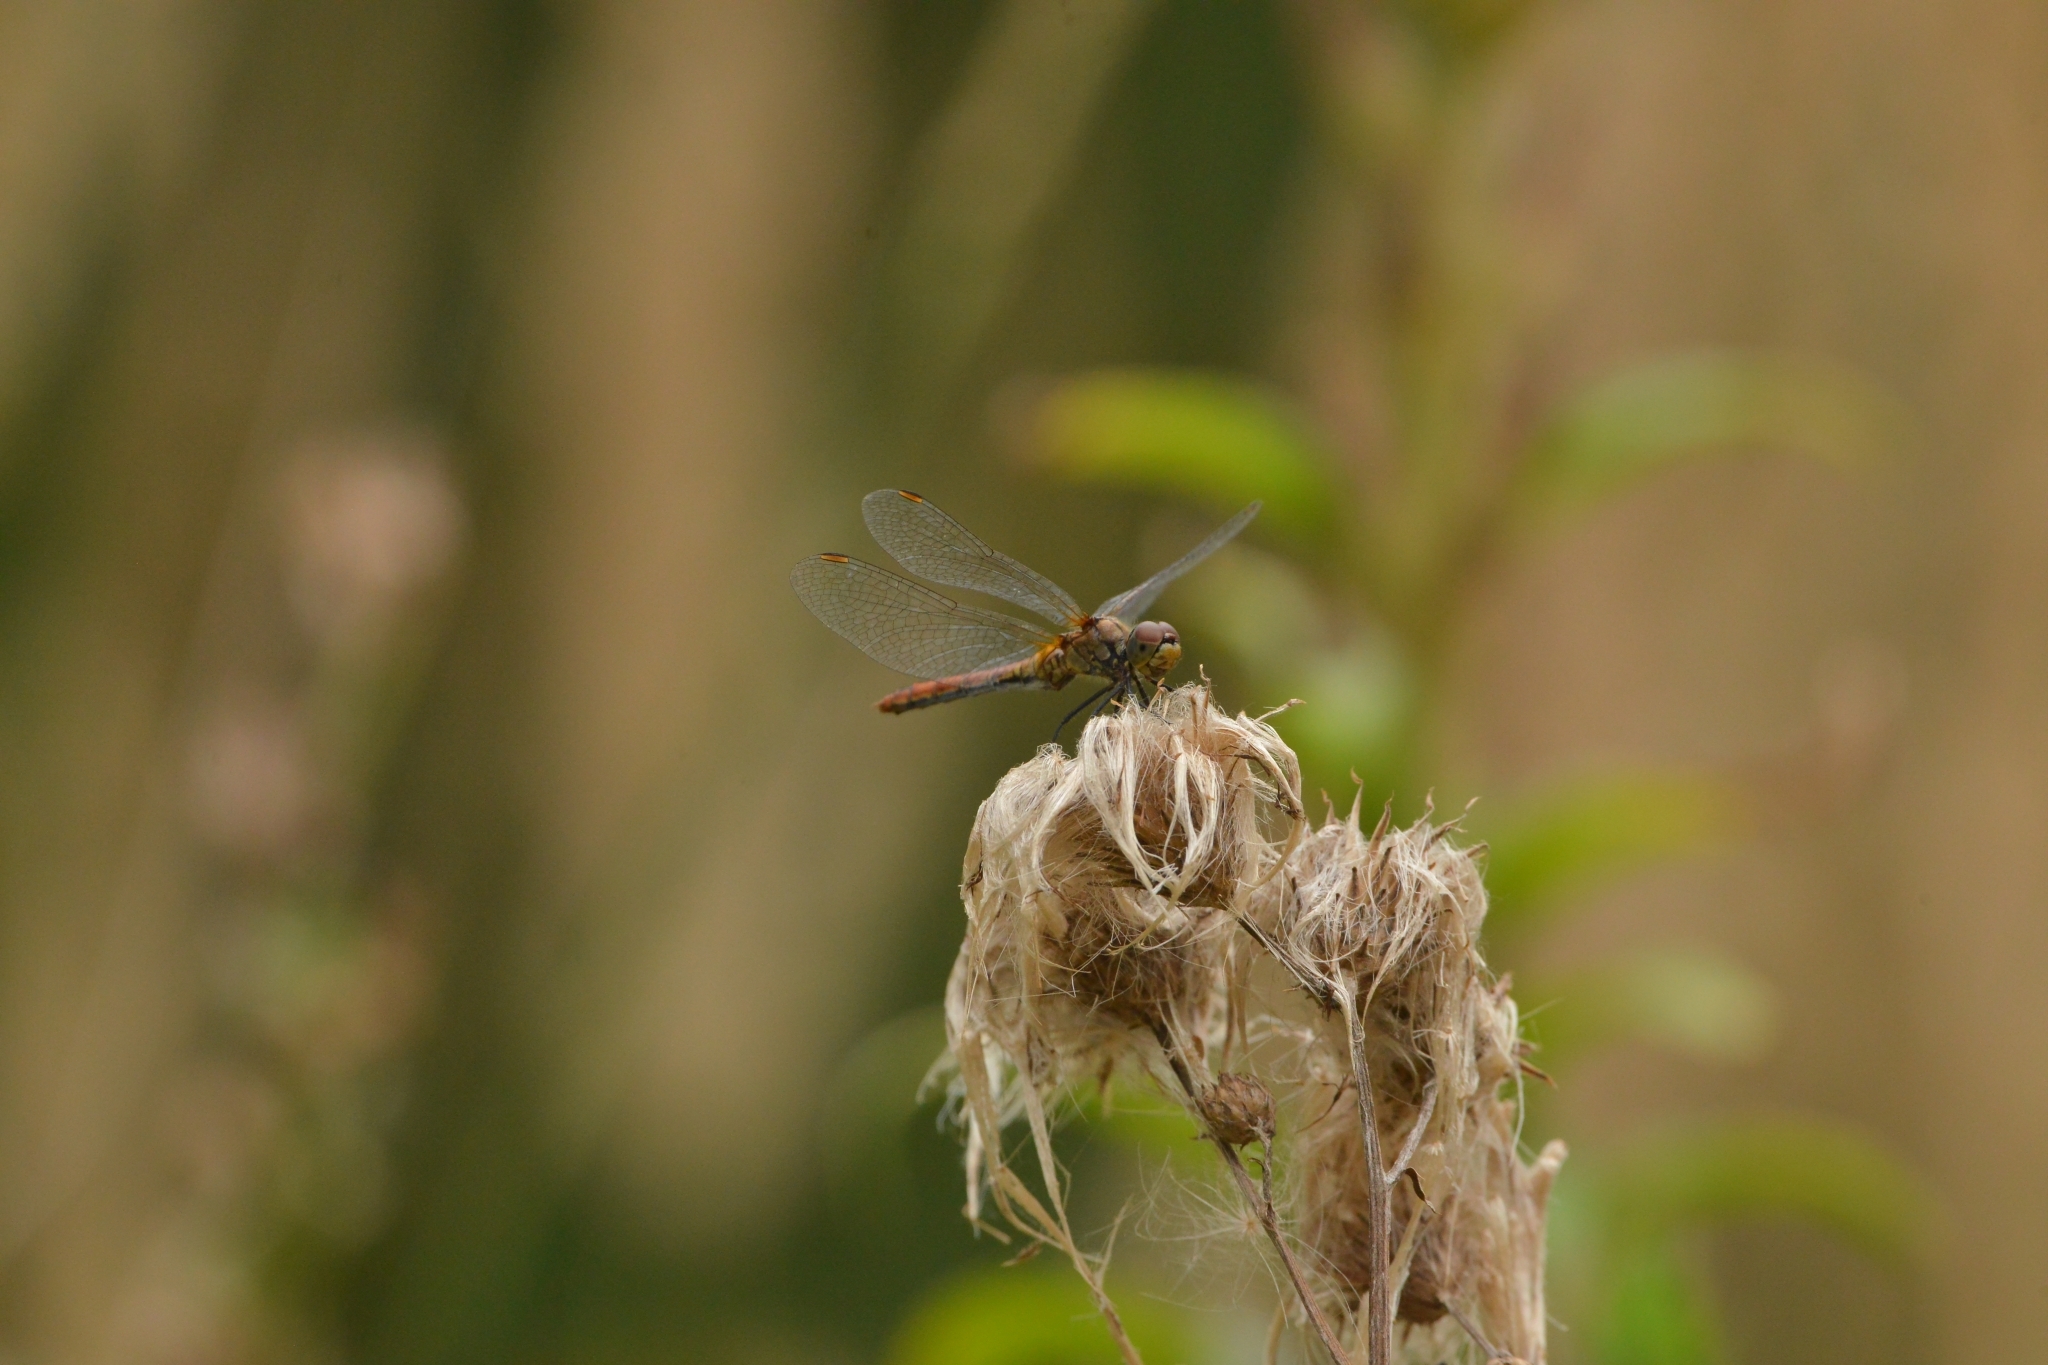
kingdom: Animalia
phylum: Arthropoda
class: Insecta
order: Odonata
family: Libellulidae
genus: Sympetrum
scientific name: Sympetrum sanguineum
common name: Ruddy darter
